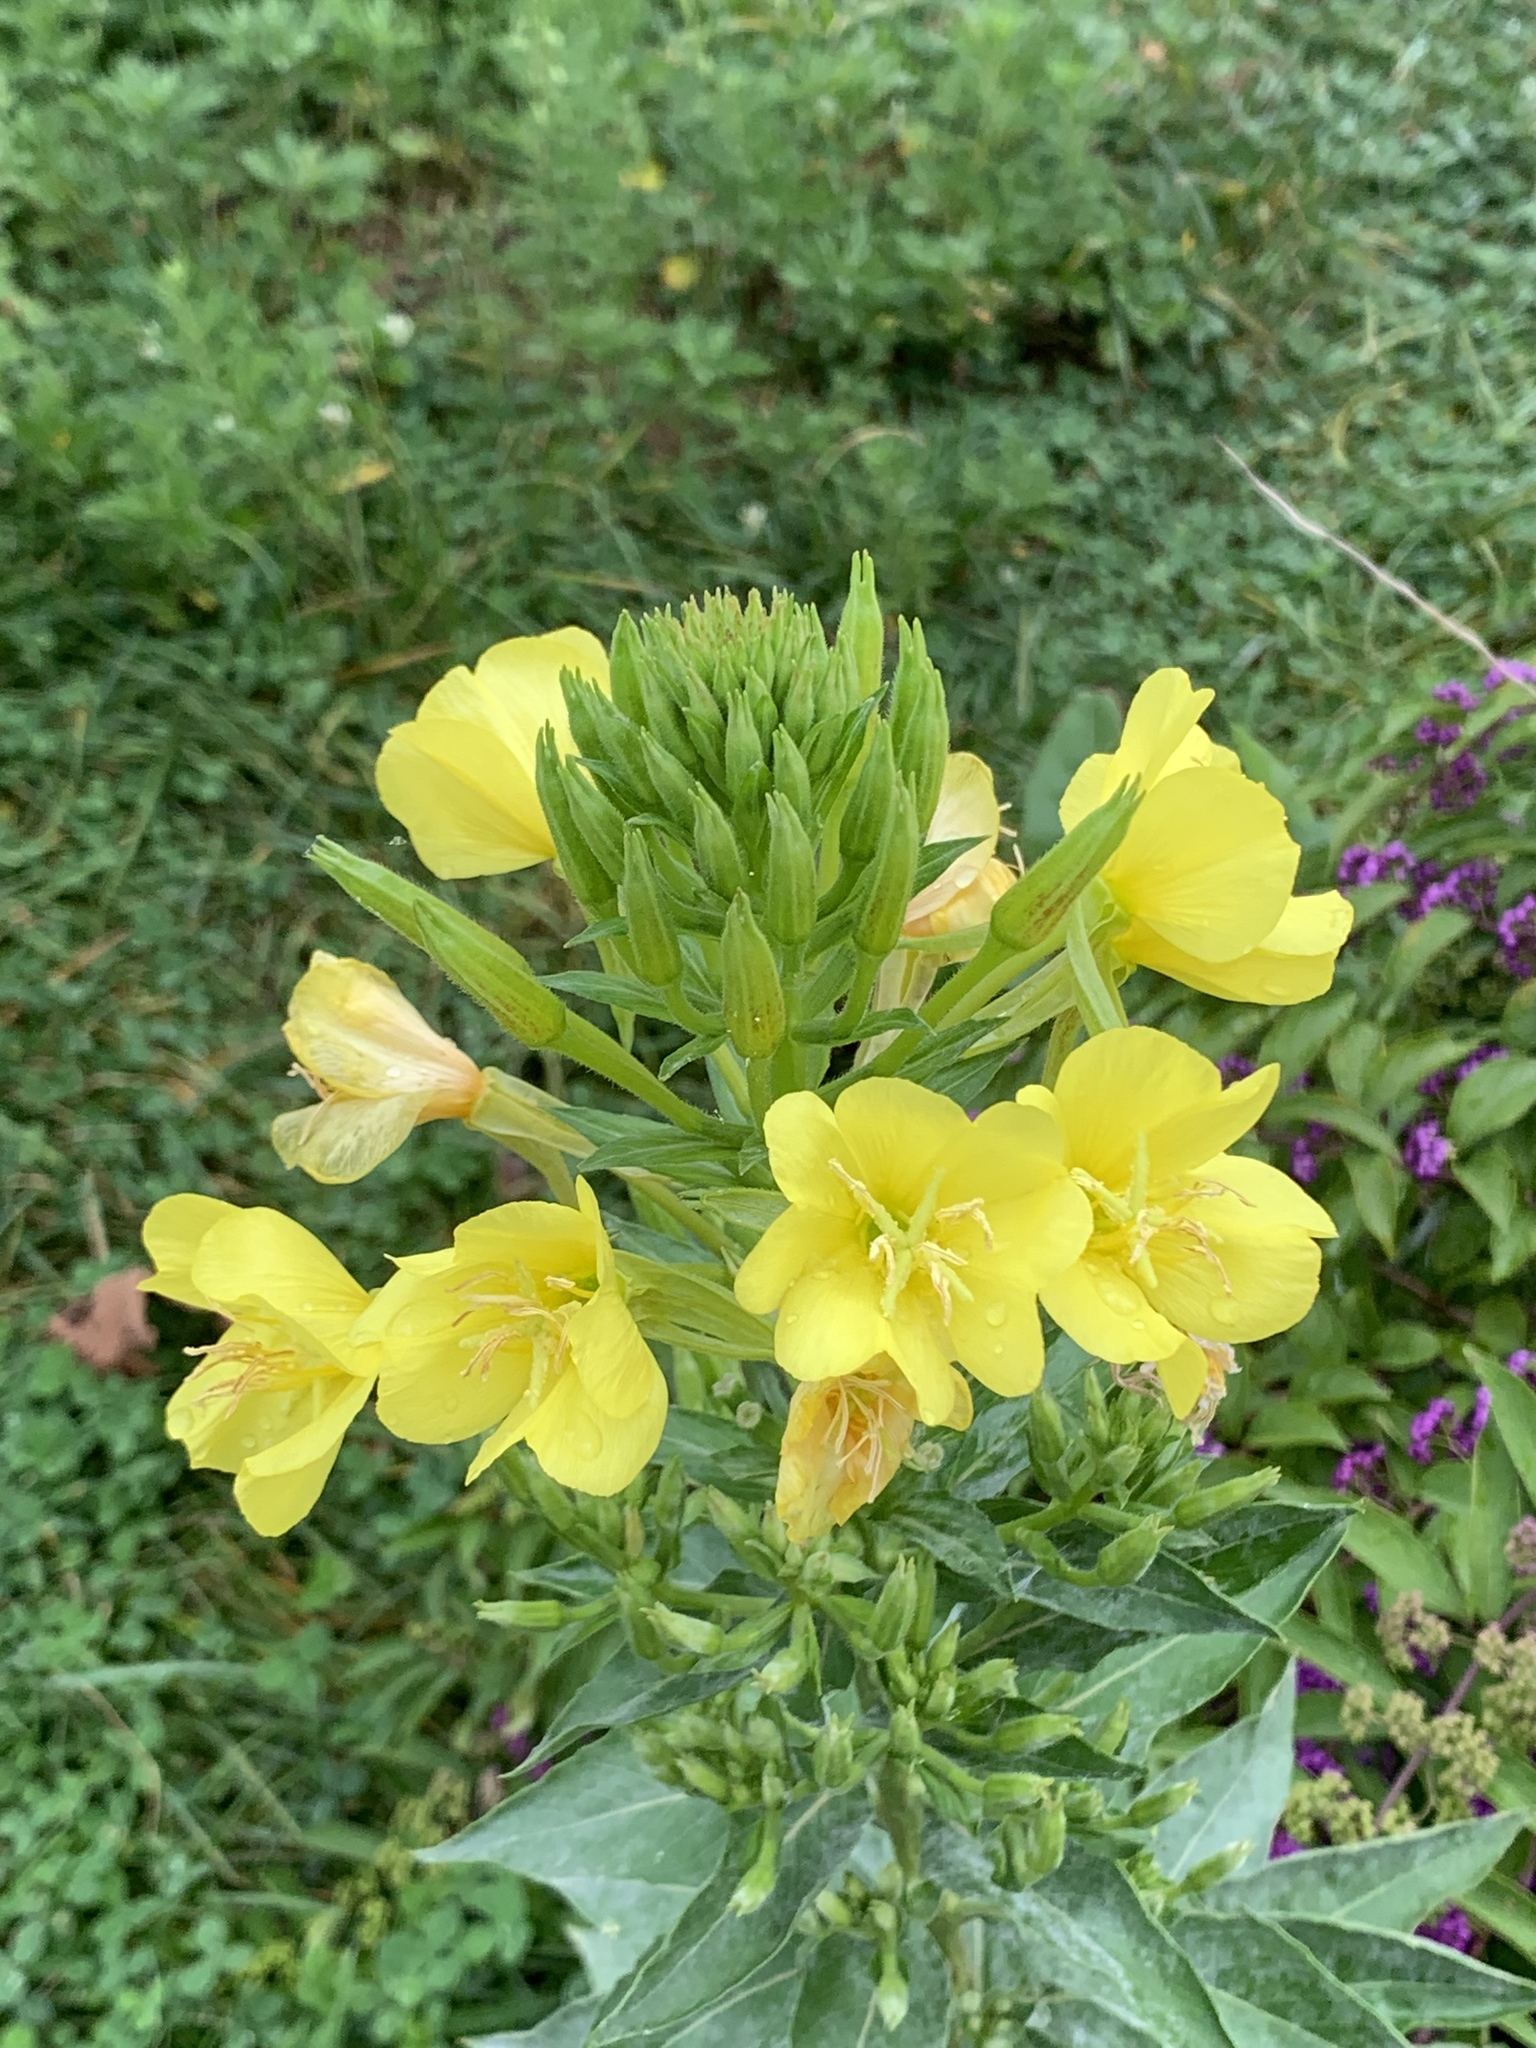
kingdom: Plantae
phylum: Tracheophyta
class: Magnoliopsida
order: Myrtales
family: Onagraceae
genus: Oenothera
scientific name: Oenothera biennis
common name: Common evening-primrose
